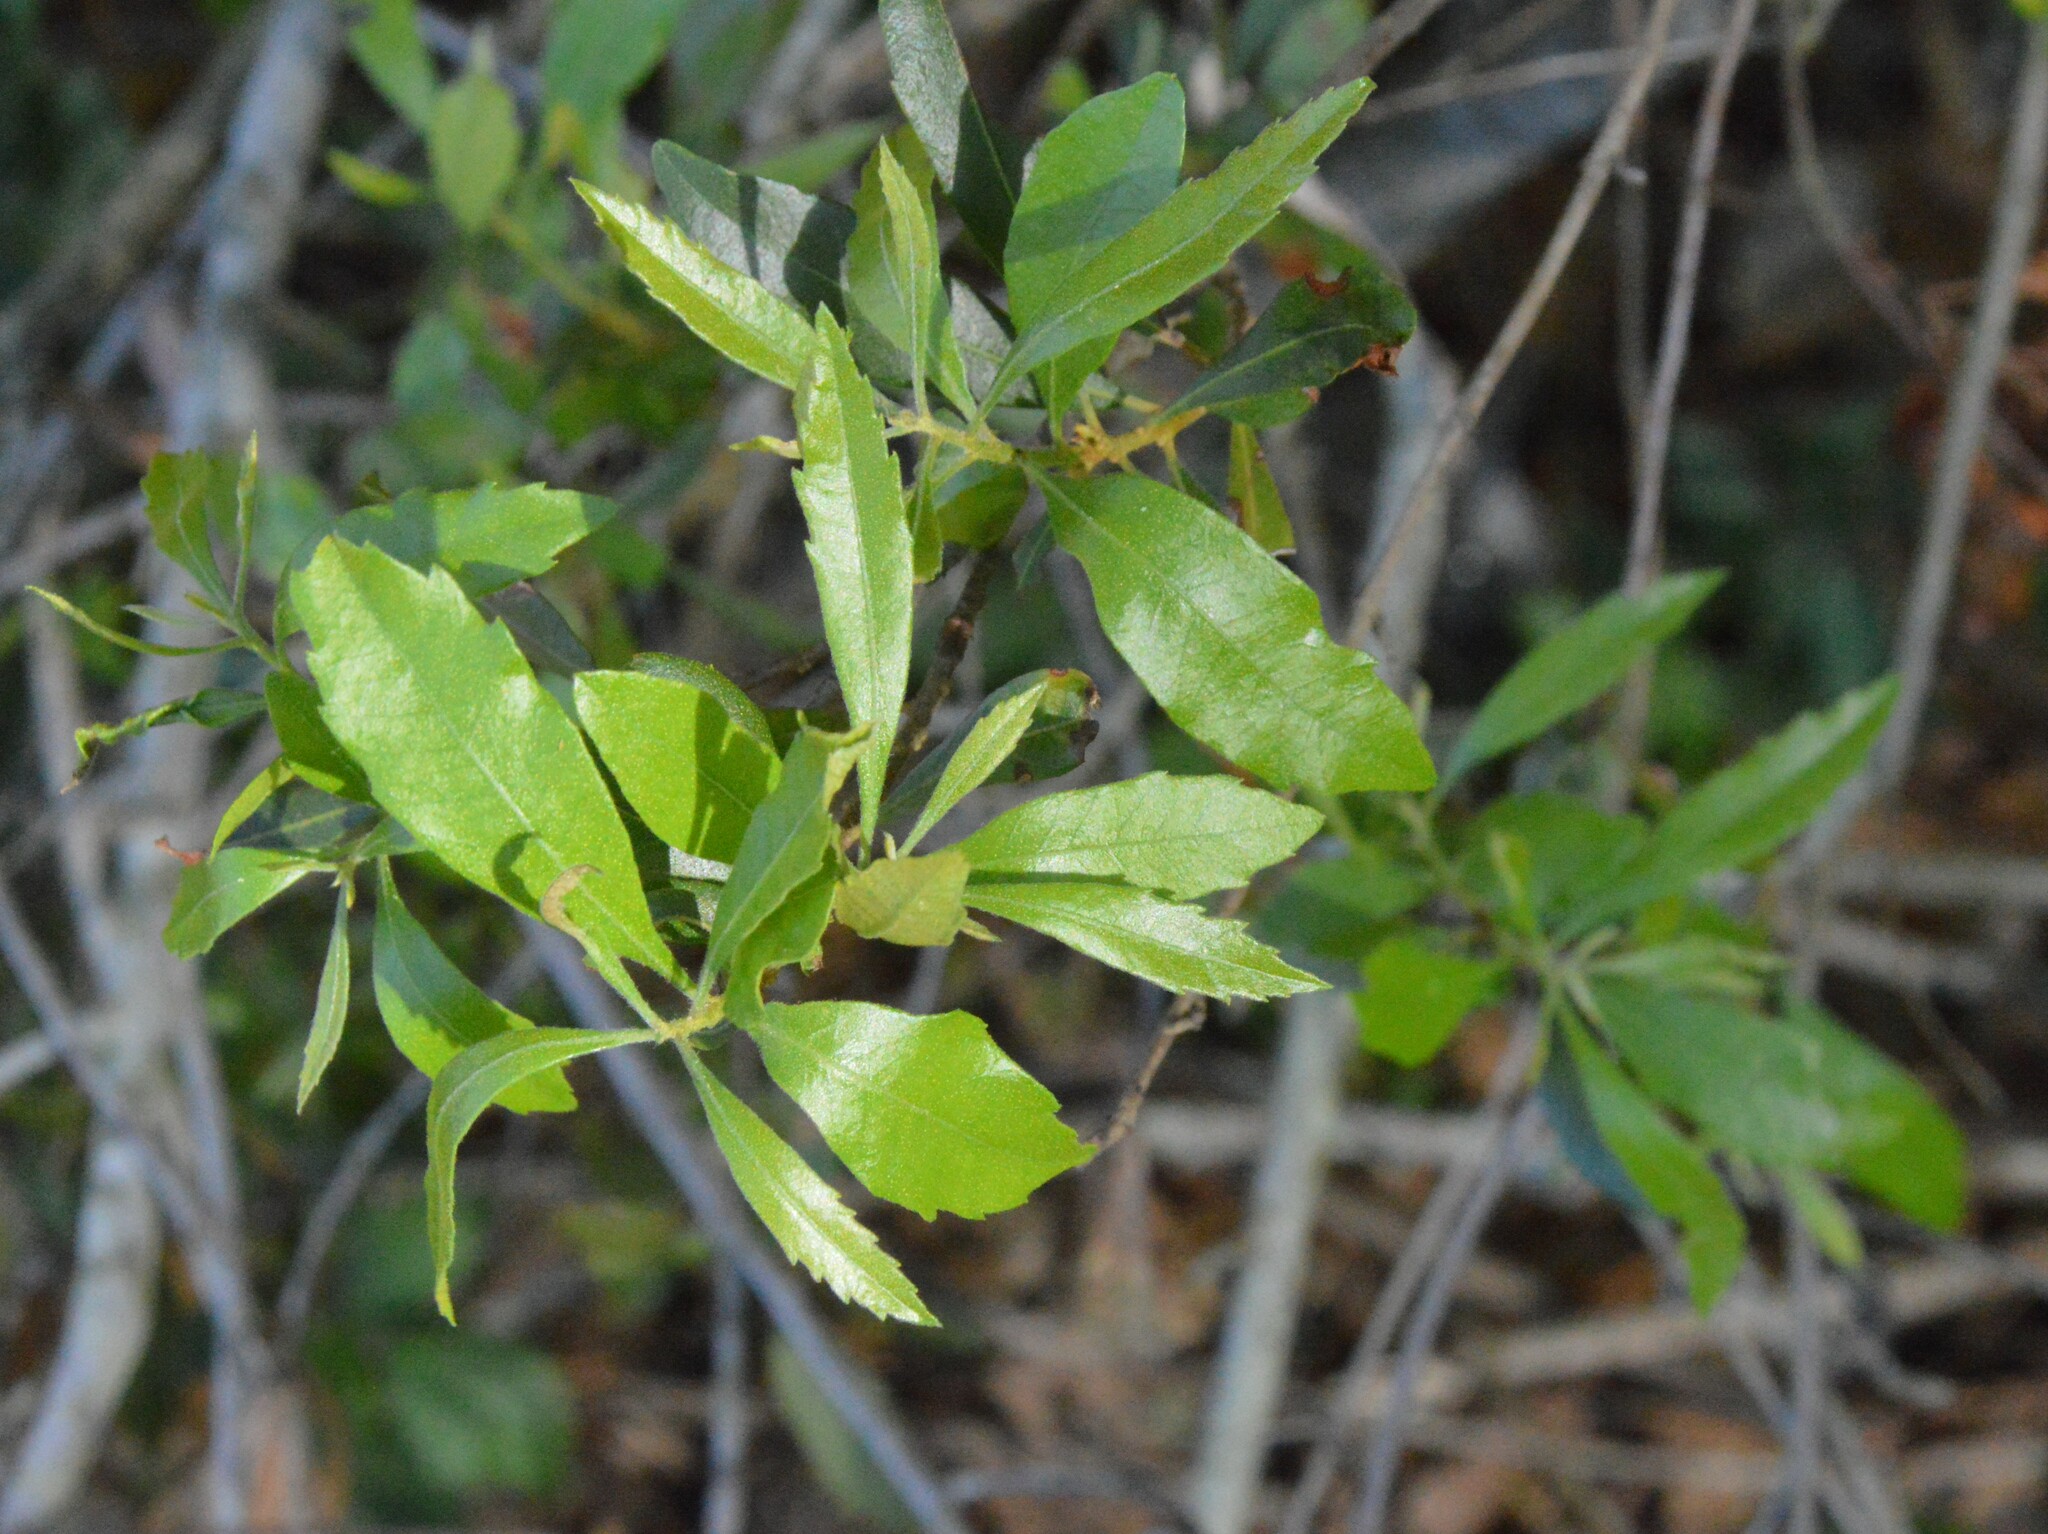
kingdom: Plantae
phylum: Tracheophyta
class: Magnoliopsida
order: Fagales
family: Myricaceae
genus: Morella
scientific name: Morella cerifera
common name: Wax myrtle
